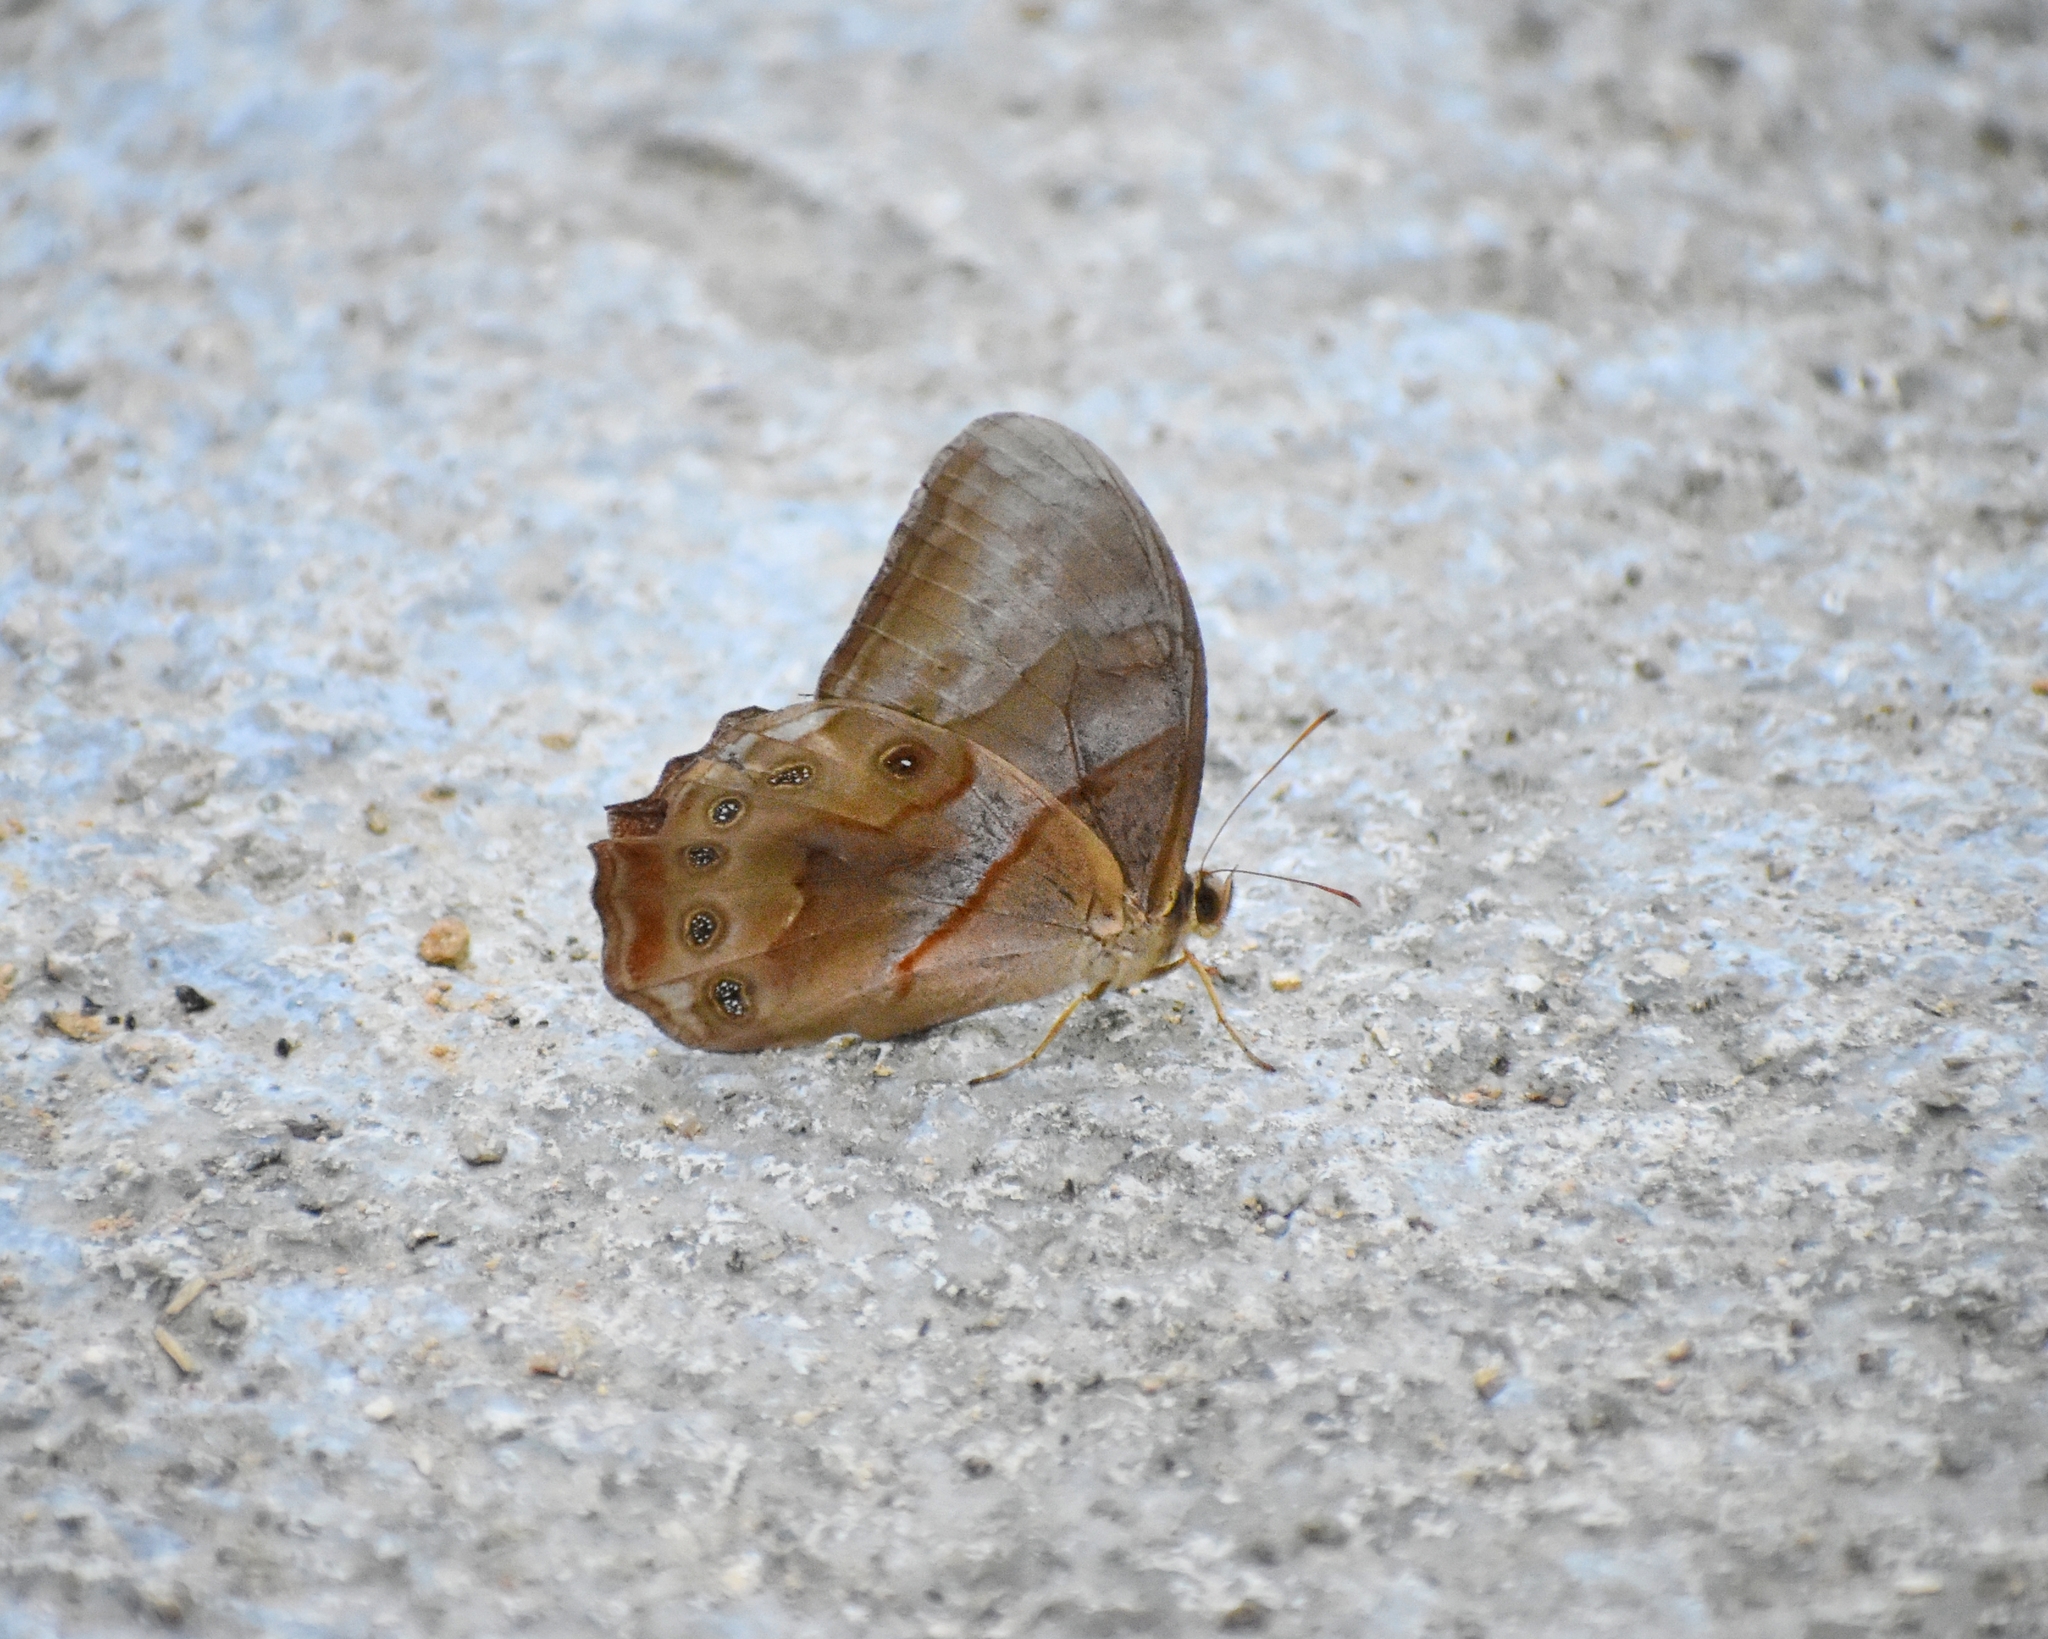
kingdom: Animalia
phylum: Arthropoda
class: Insecta
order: Lepidoptera
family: Nymphalidae
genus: Lethe
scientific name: Lethe chandica
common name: Angled red forester
